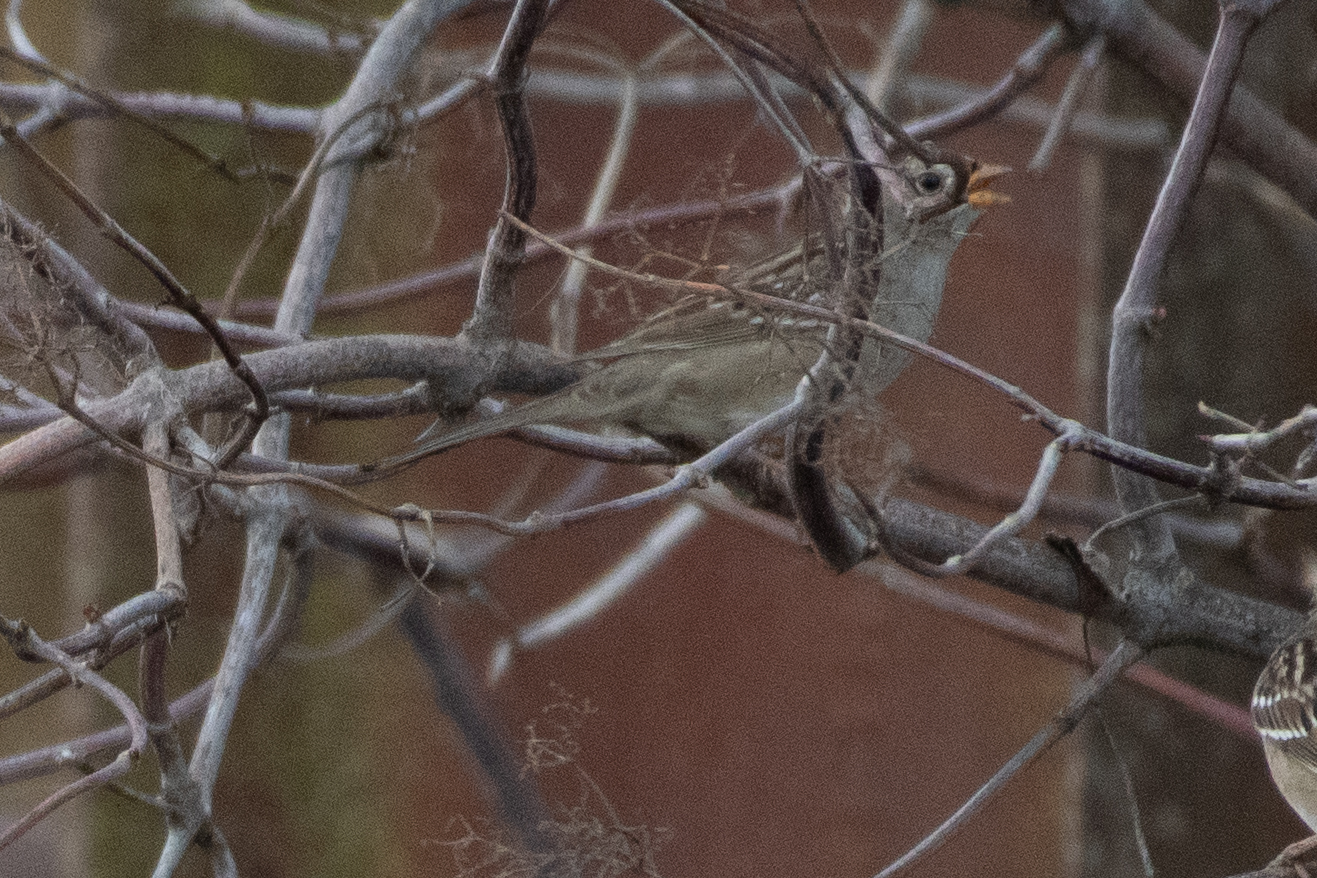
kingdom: Animalia
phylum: Chordata
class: Aves
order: Passeriformes
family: Passerellidae
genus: Zonotrichia
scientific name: Zonotrichia leucophrys
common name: White-crowned sparrow
